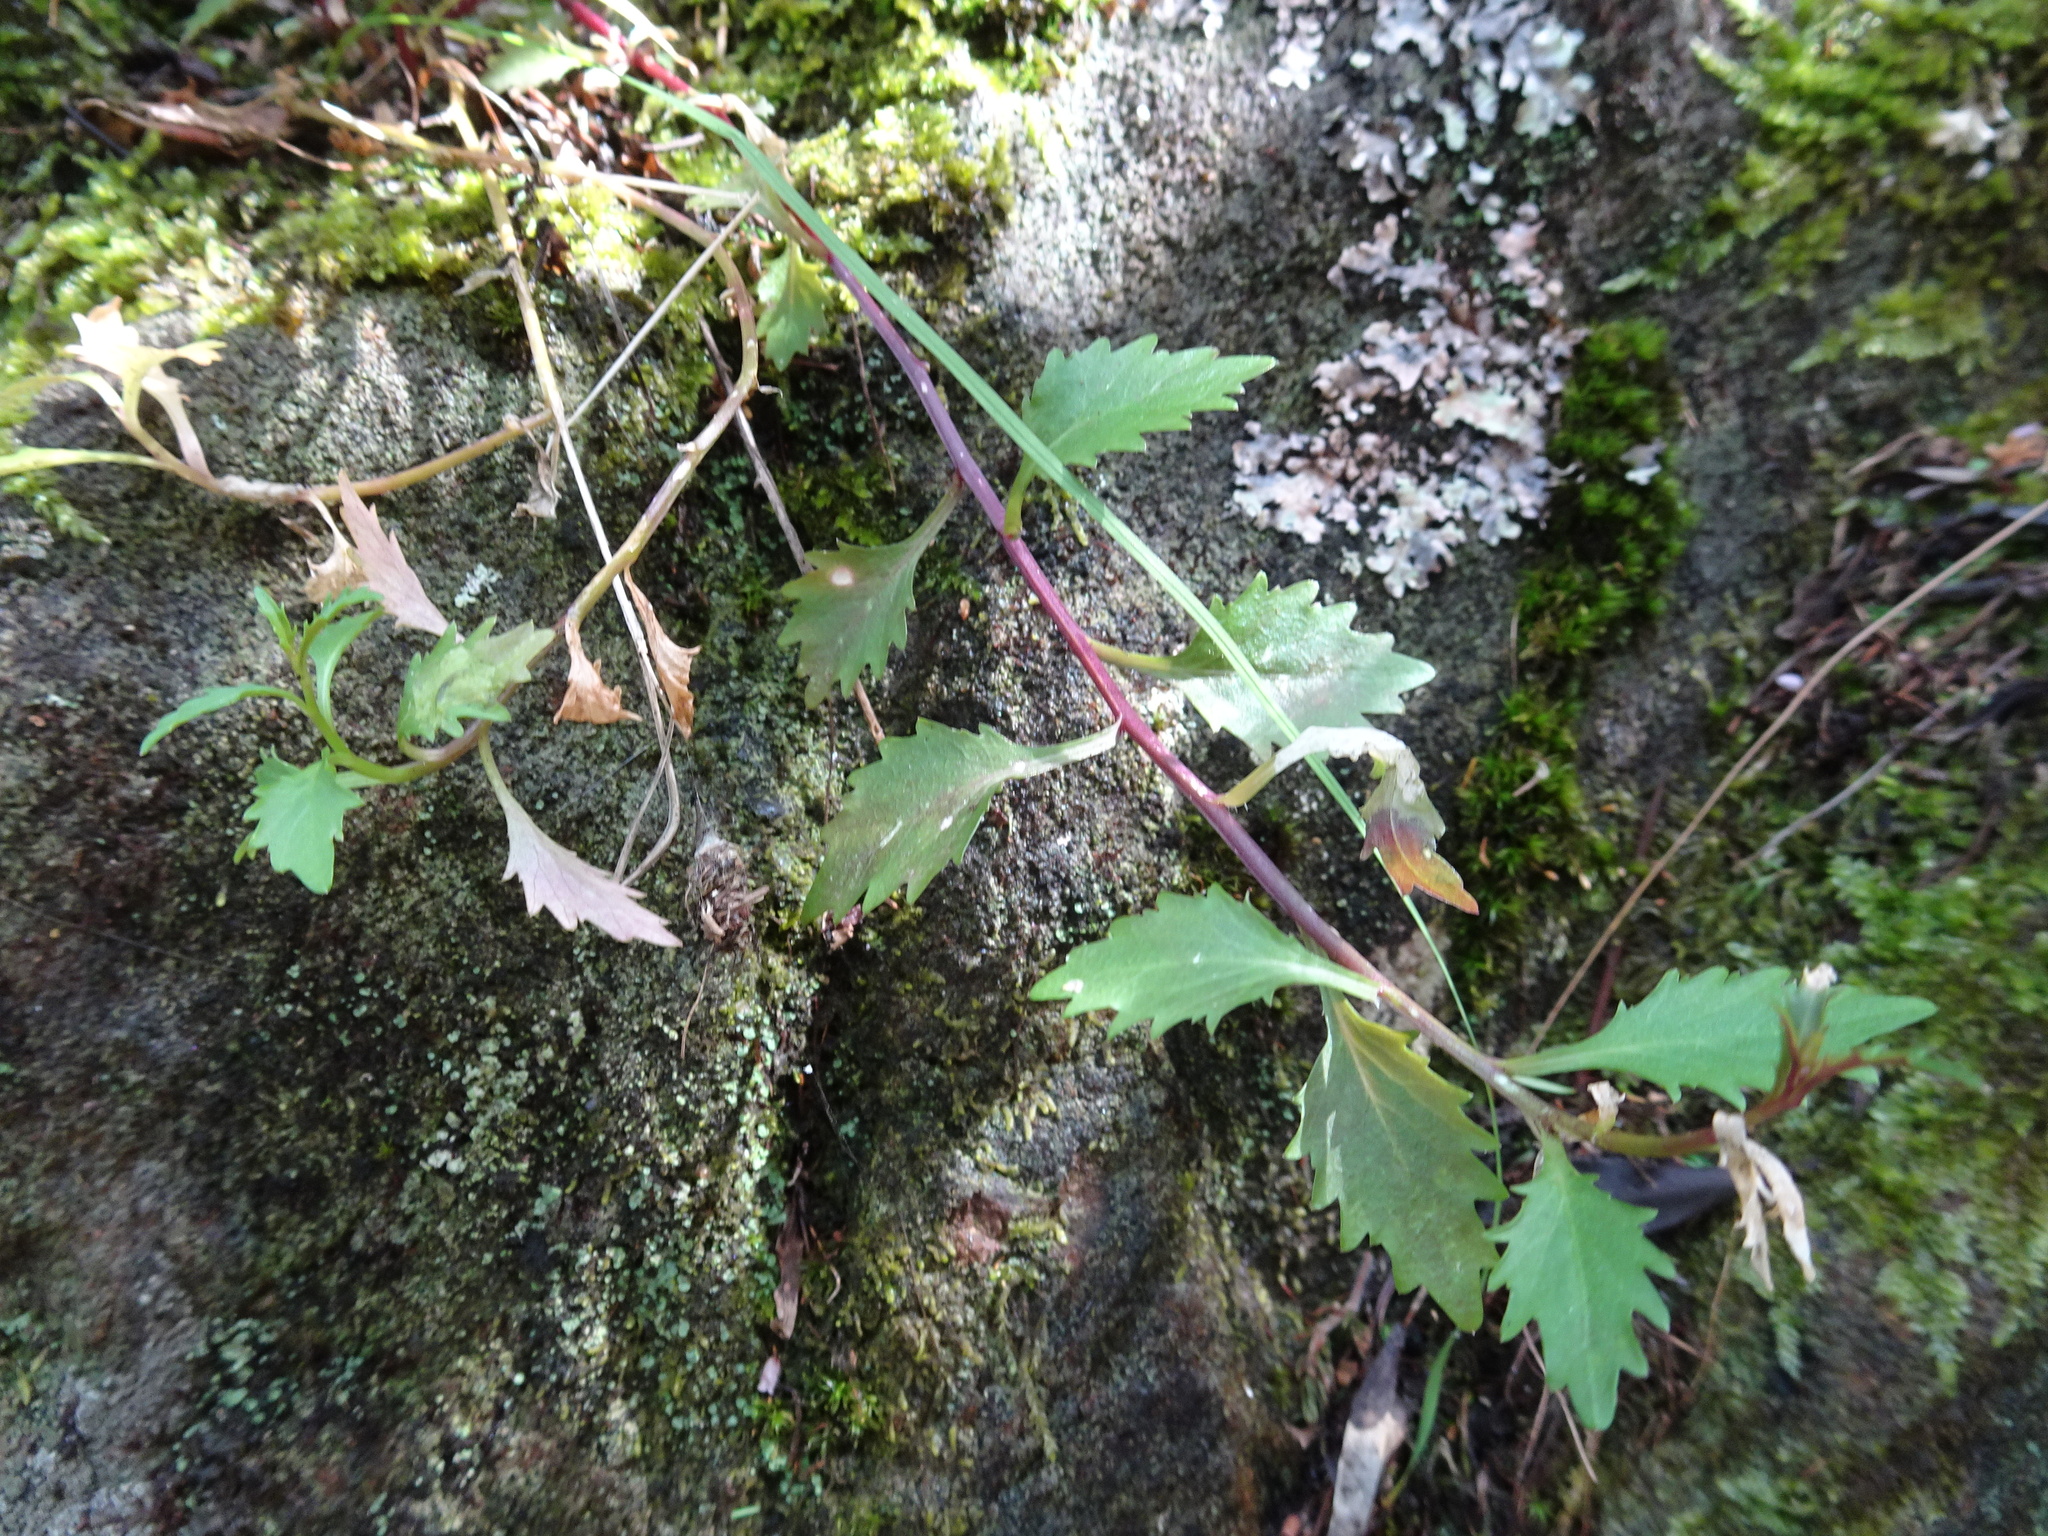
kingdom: Plantae
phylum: Tracheophyta
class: Magnoliopsida
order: Asterales
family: Campanulaceae
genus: Lobelia
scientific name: Lobelia pubescens
